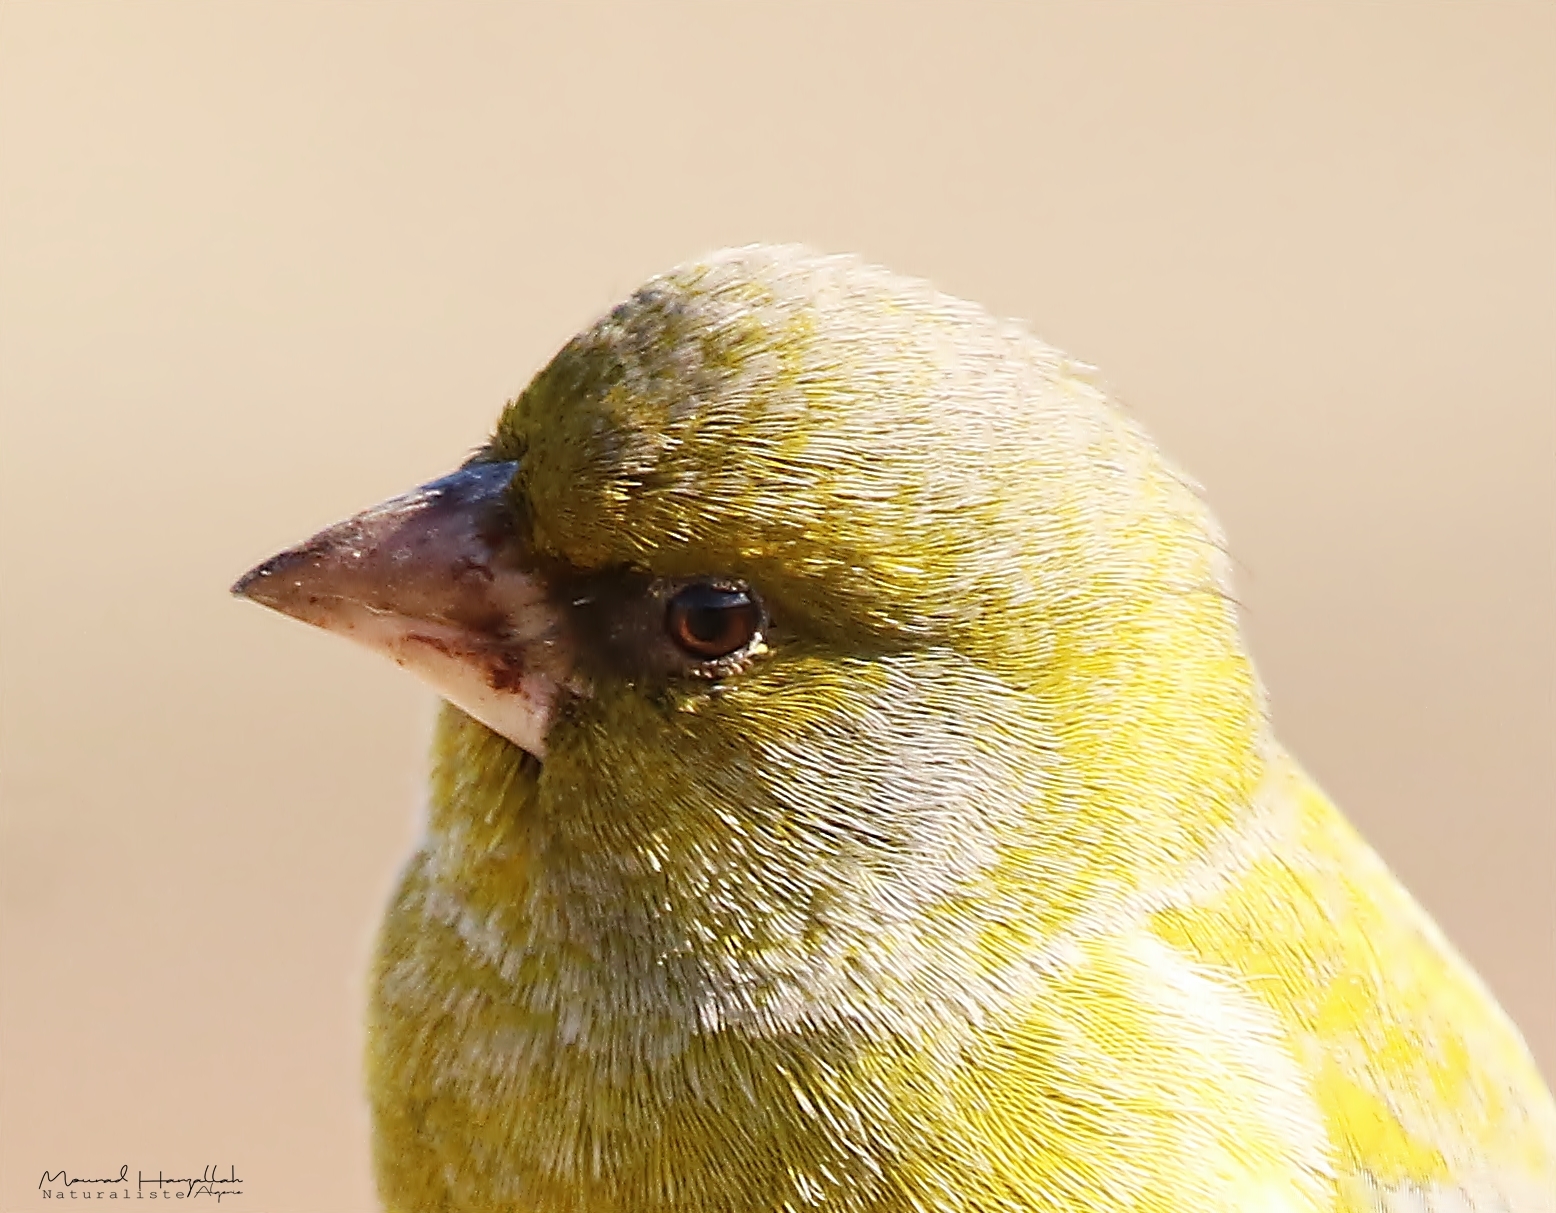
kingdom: Plantae
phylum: Tracheophyta
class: Liliopsida
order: Poales
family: Poaceae
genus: Chloris
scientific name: Chloris chloris
